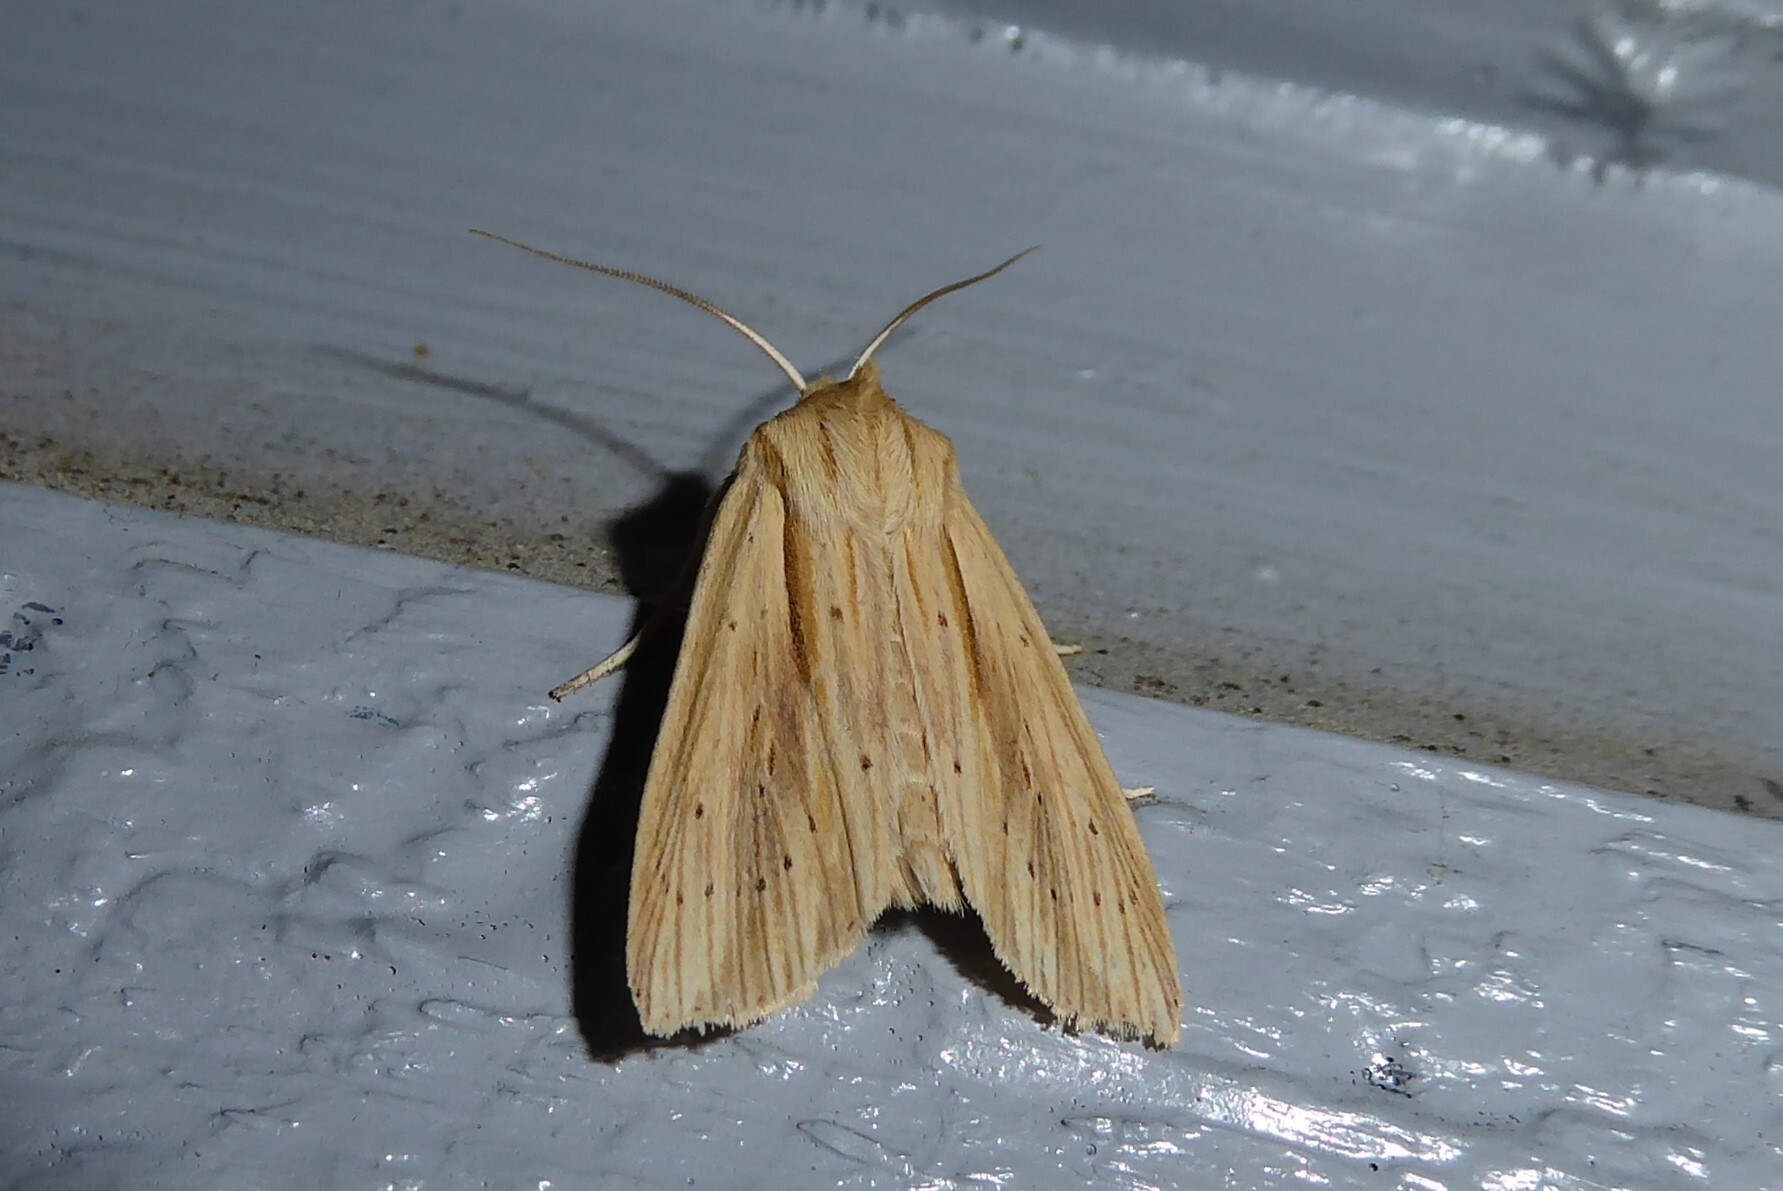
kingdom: Animalia
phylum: Arthropoda
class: Insecta
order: Lepidoptera
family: Noctuidae
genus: Ichneutica
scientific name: Ichneutica semivittata
